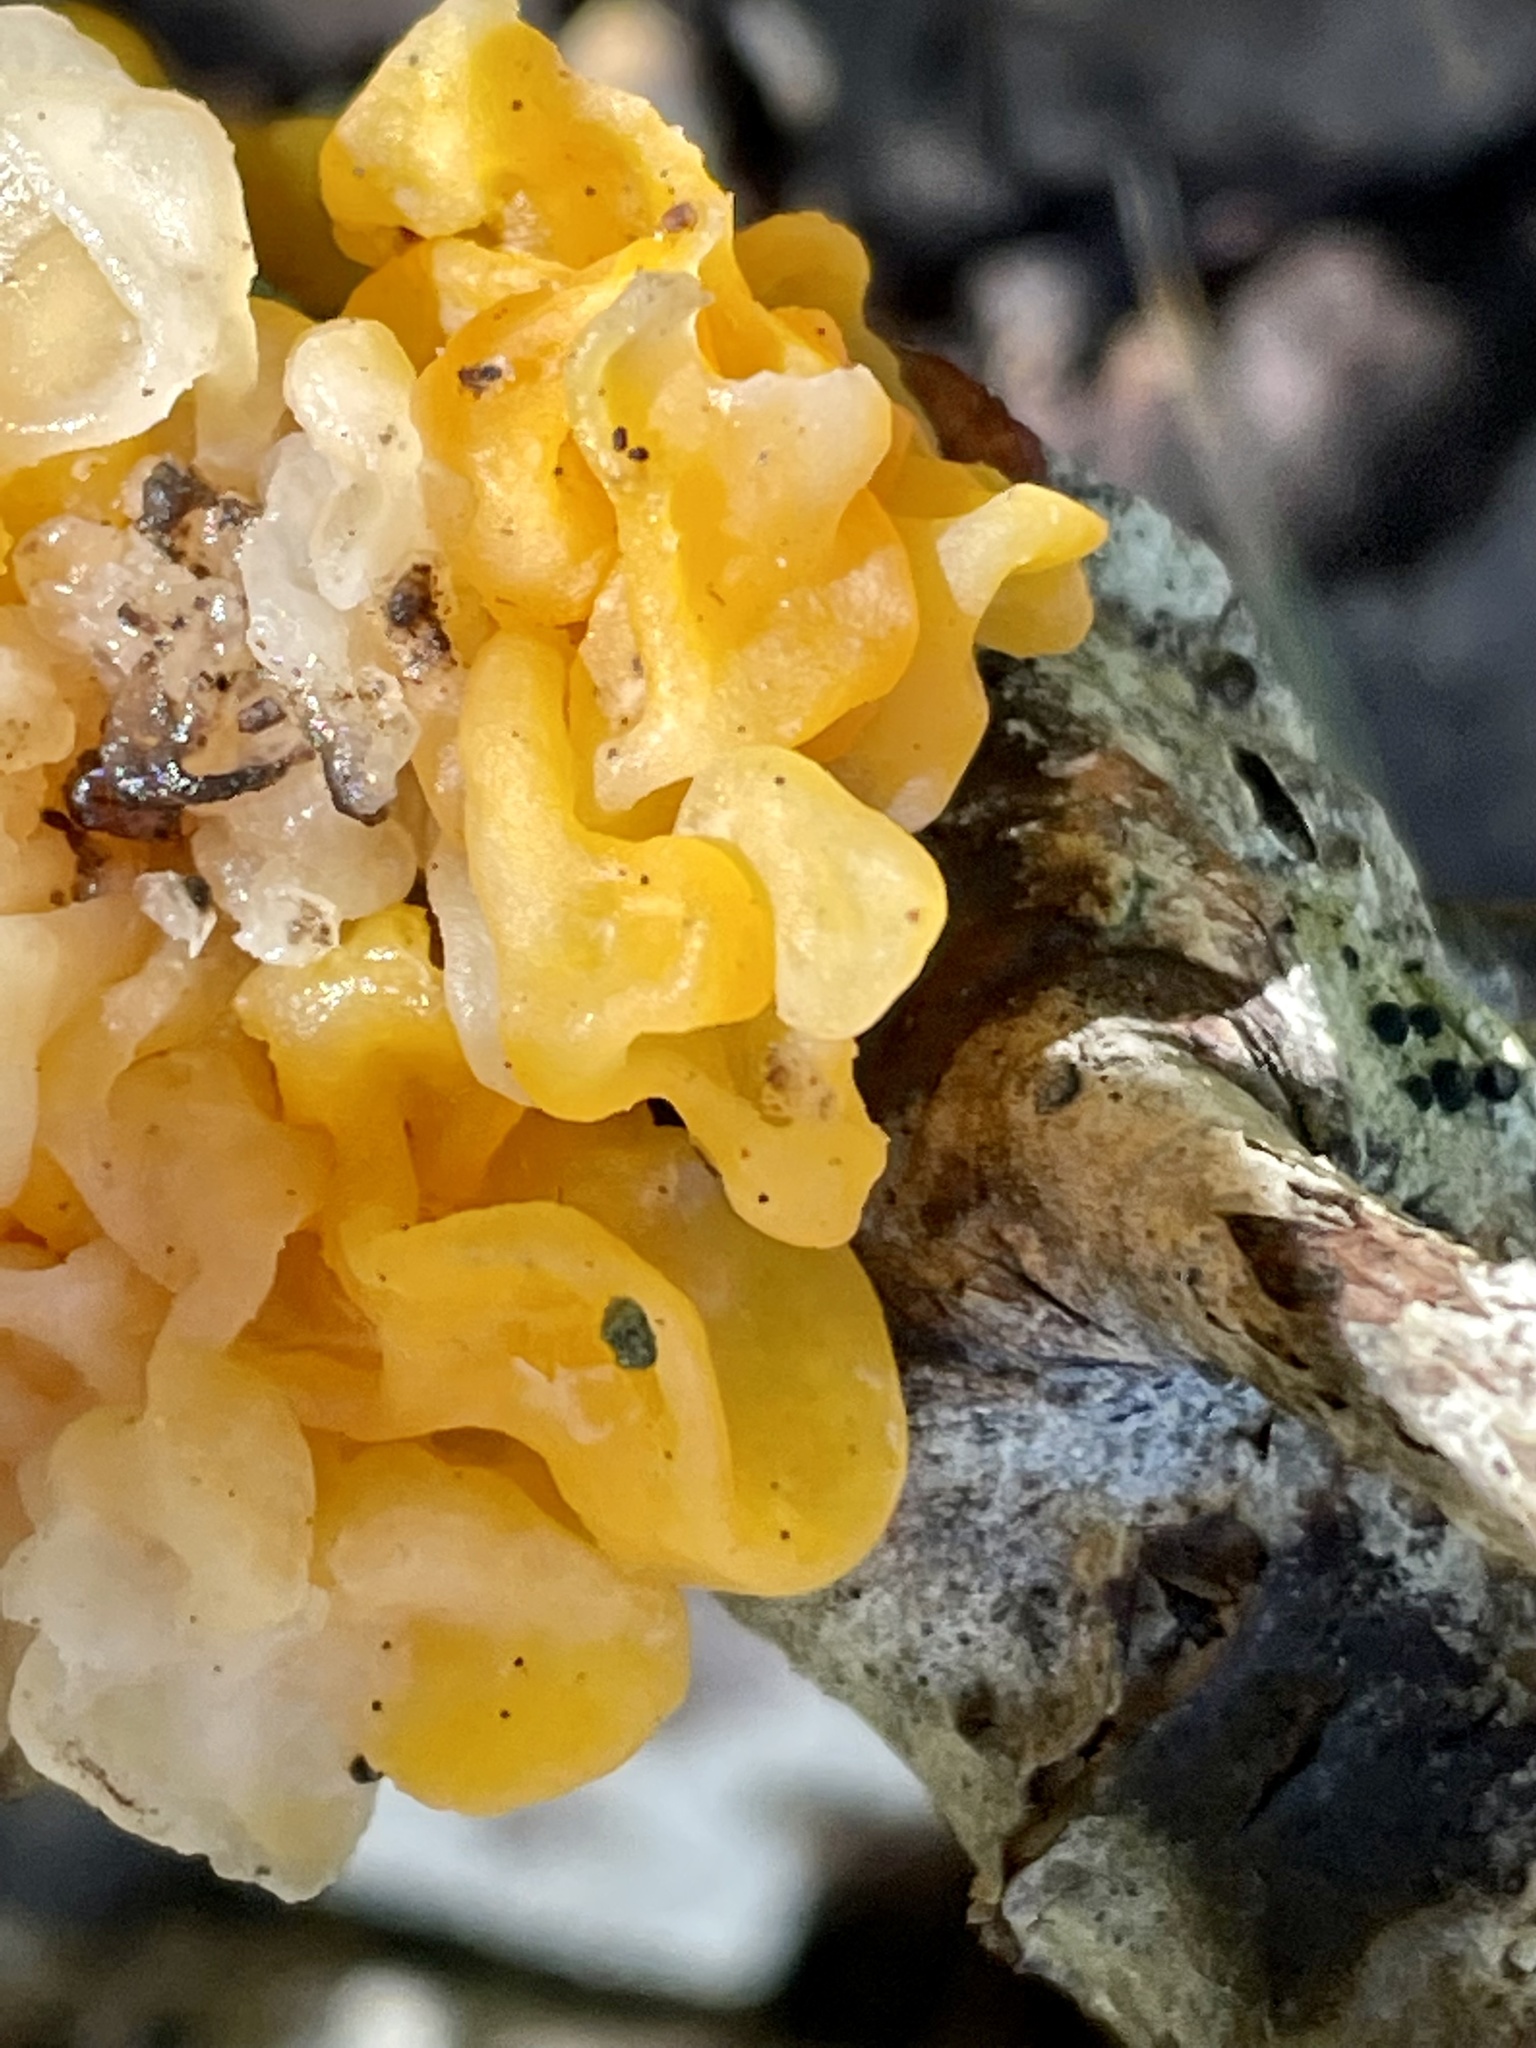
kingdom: Fungi
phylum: Basidiomycota
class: Tremellomycetes
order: Tremellales
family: Naemateliaceae
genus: Naematelia
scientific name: Naematelia aurantia
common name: Golden ear
